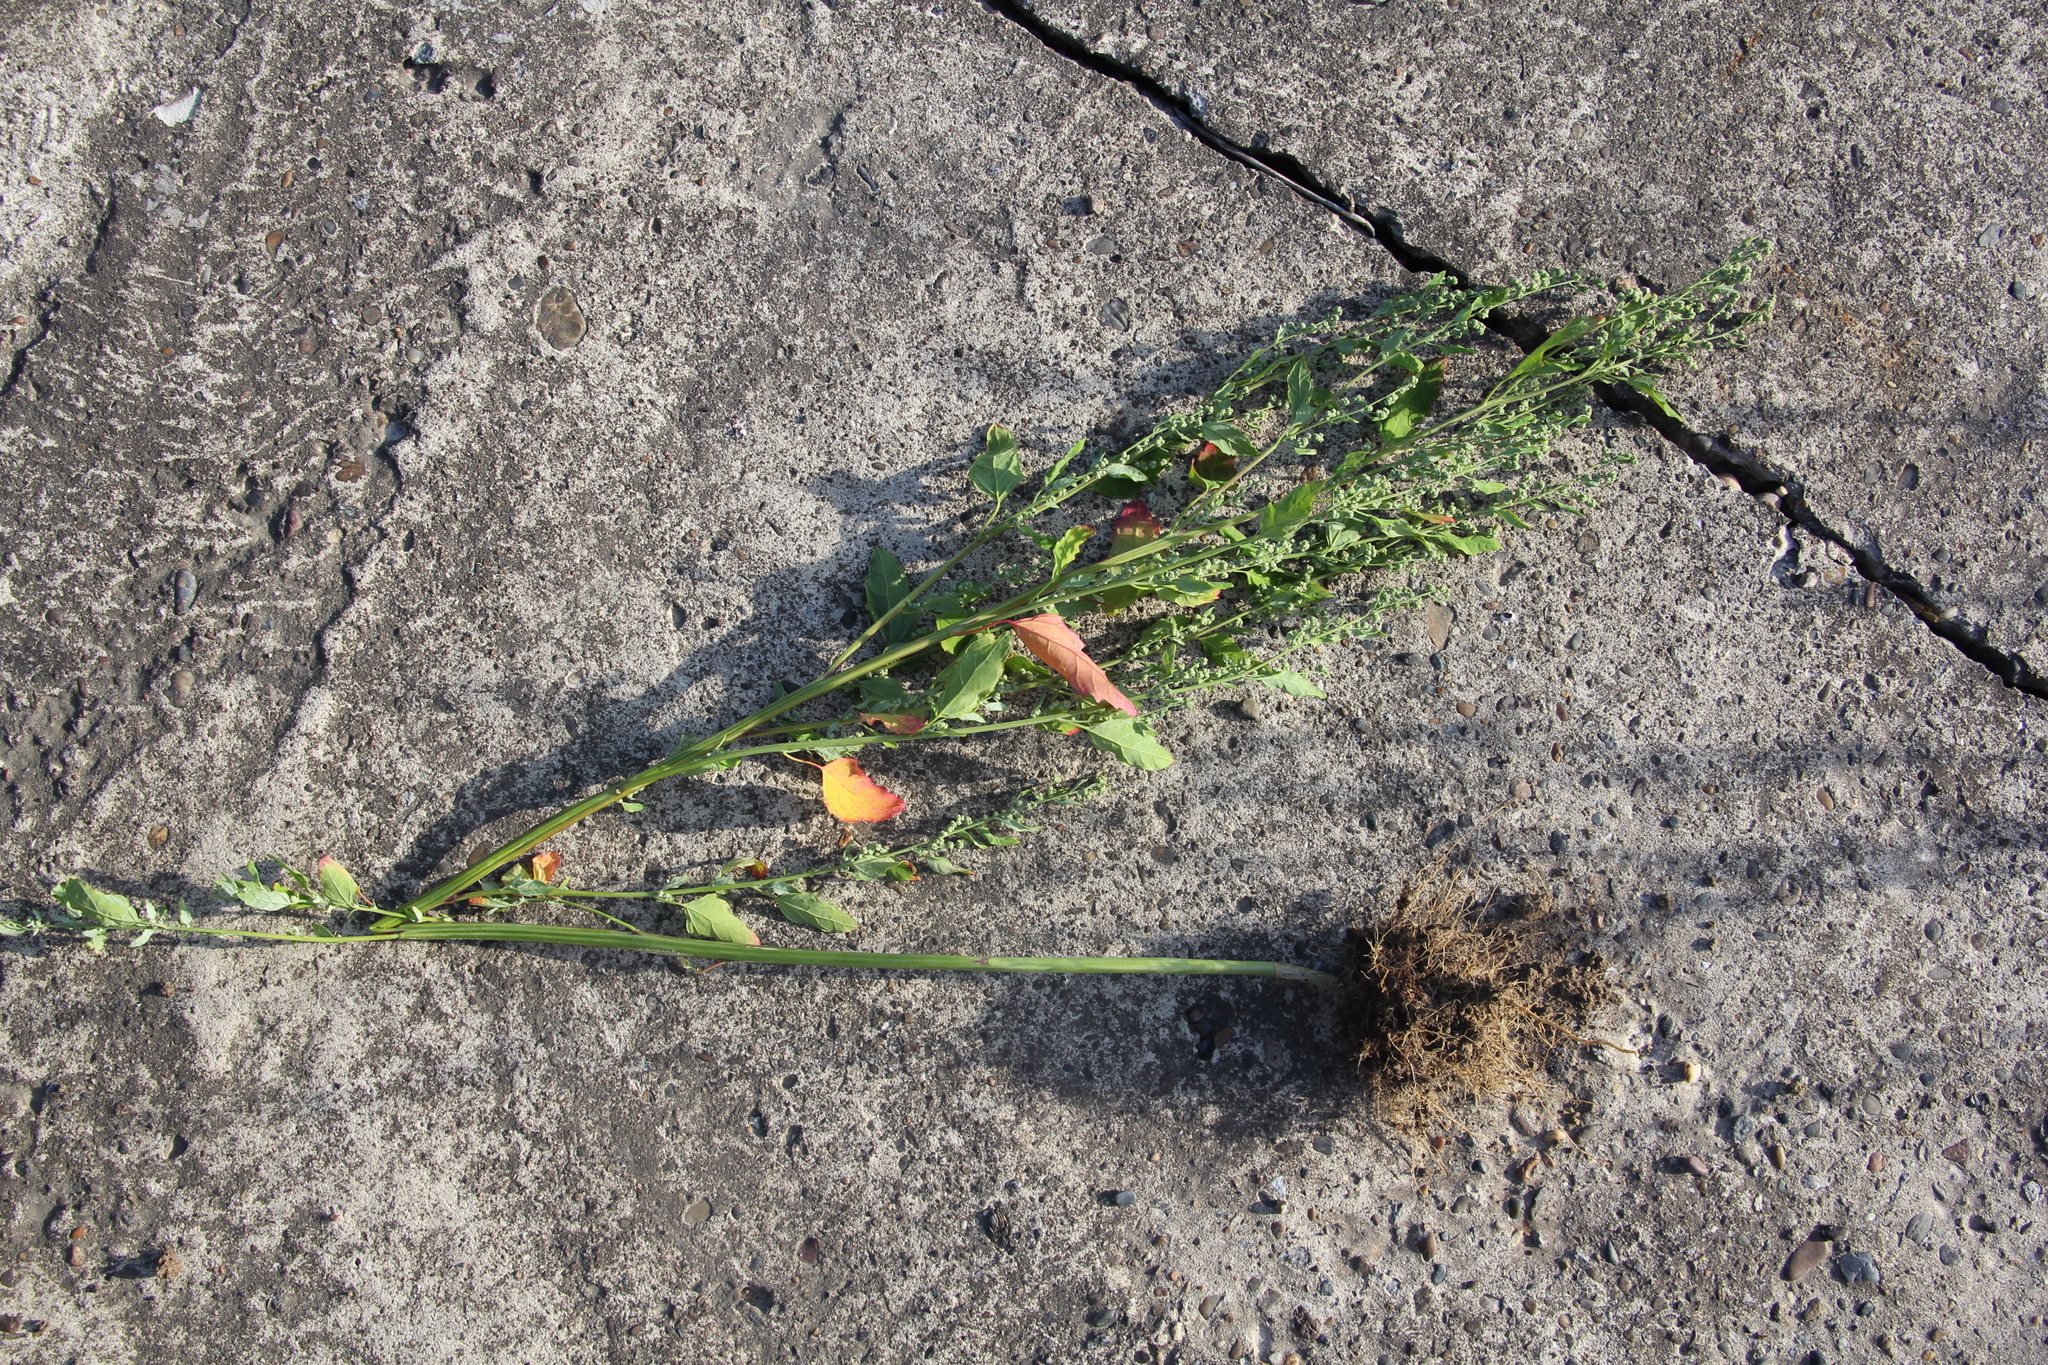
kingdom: Plantae
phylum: Tracheophyta
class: Magnoliopsida
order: Caryophyllales
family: Amaranthaceae
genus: Chenopodium
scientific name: Chenopodium album
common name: Fat-hen
